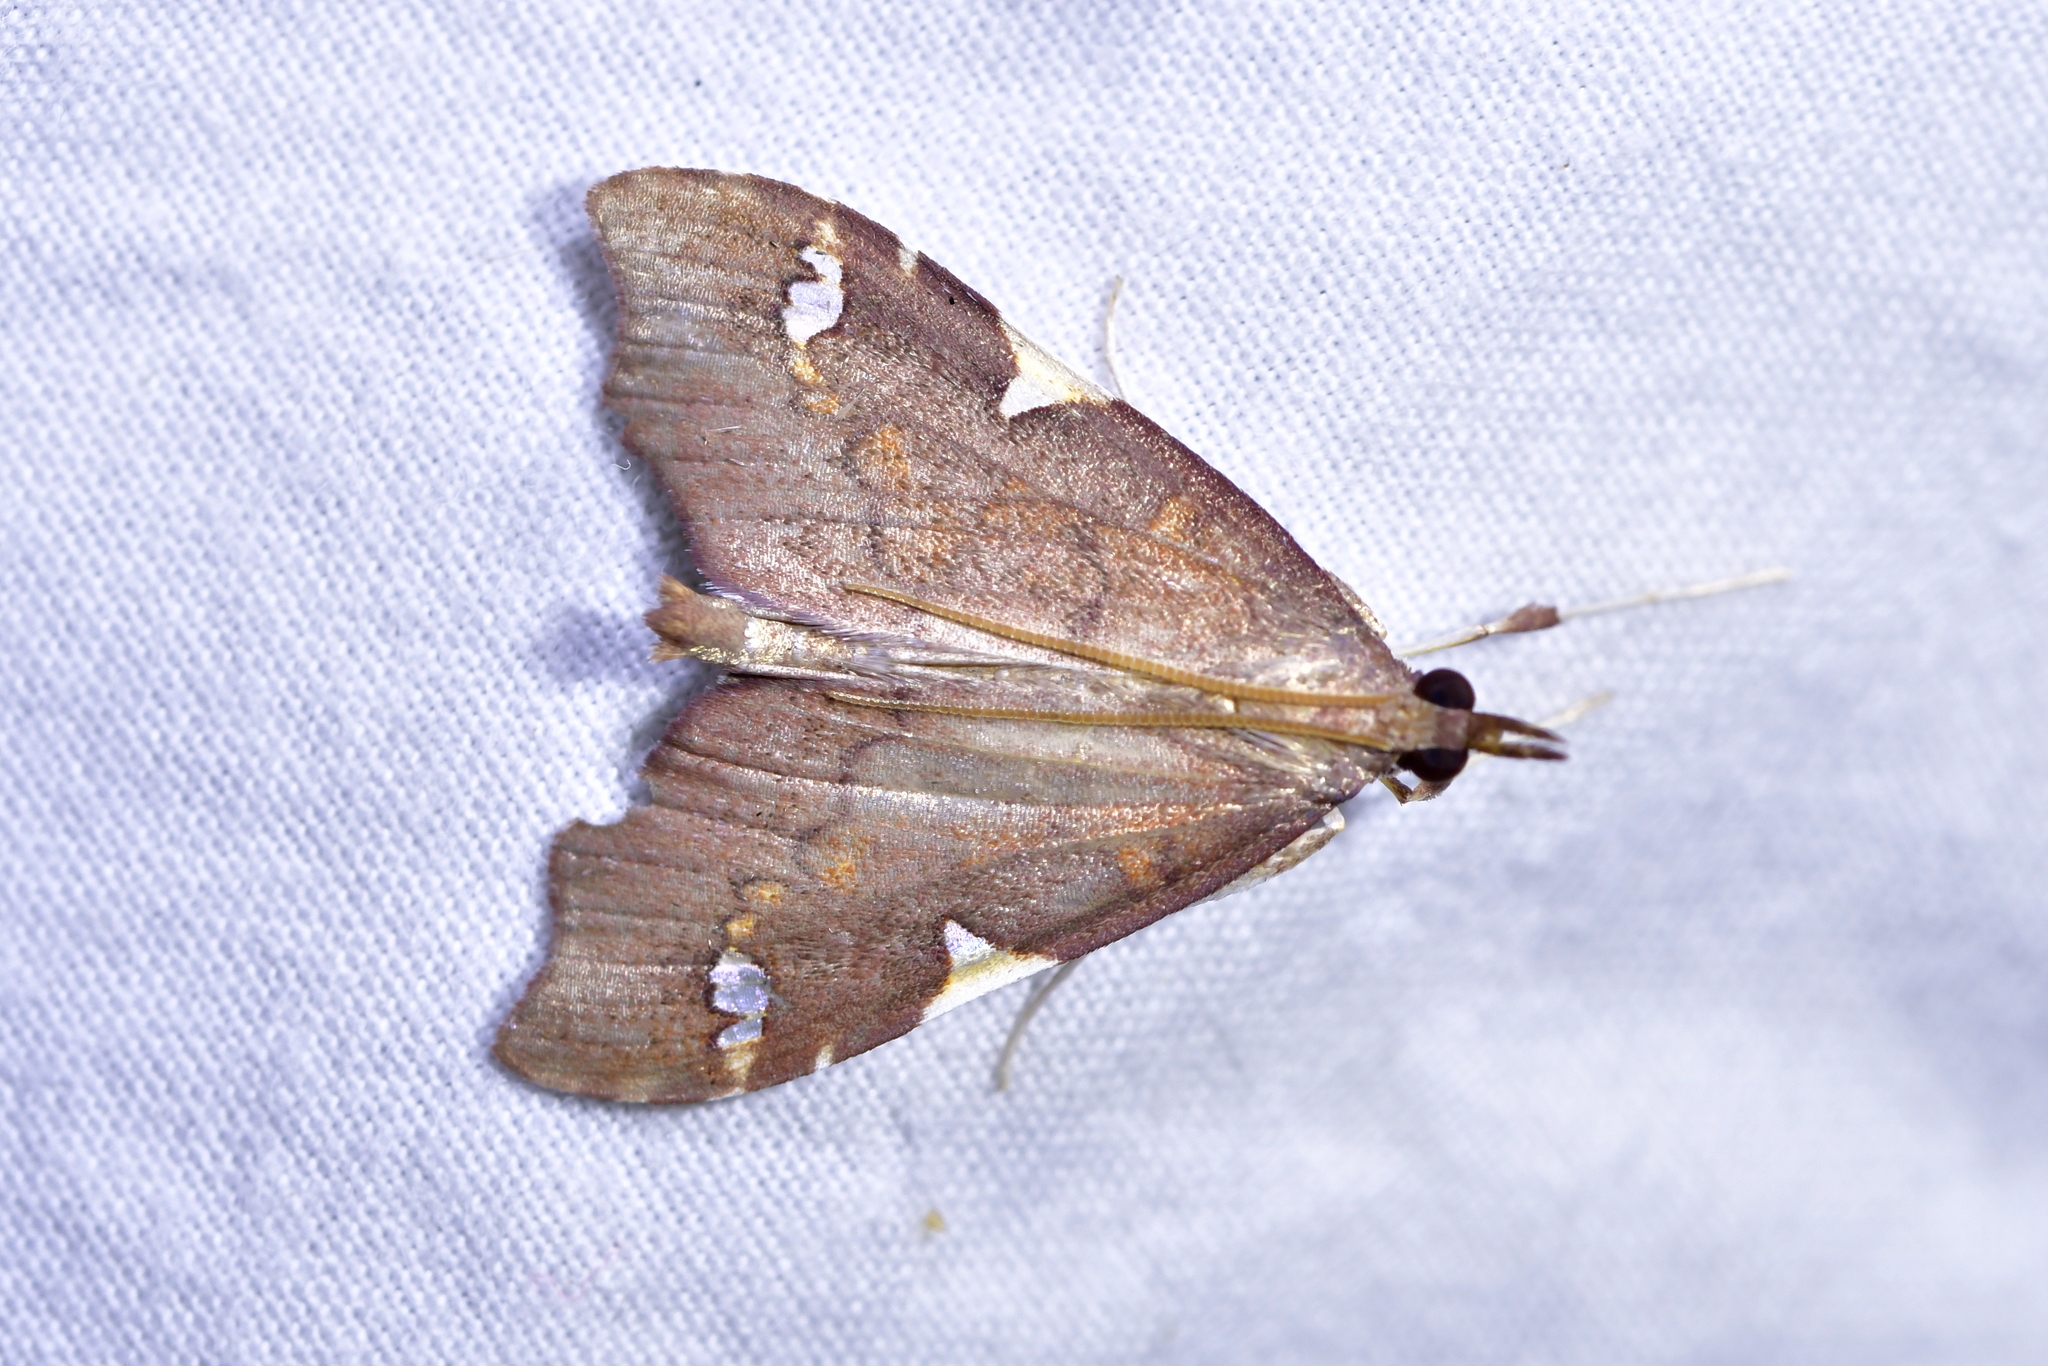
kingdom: Animalia
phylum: Arthropoda
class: Insecta
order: Lepidoptera
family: Crambidae
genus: Deana
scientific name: Deana hybreasalis
